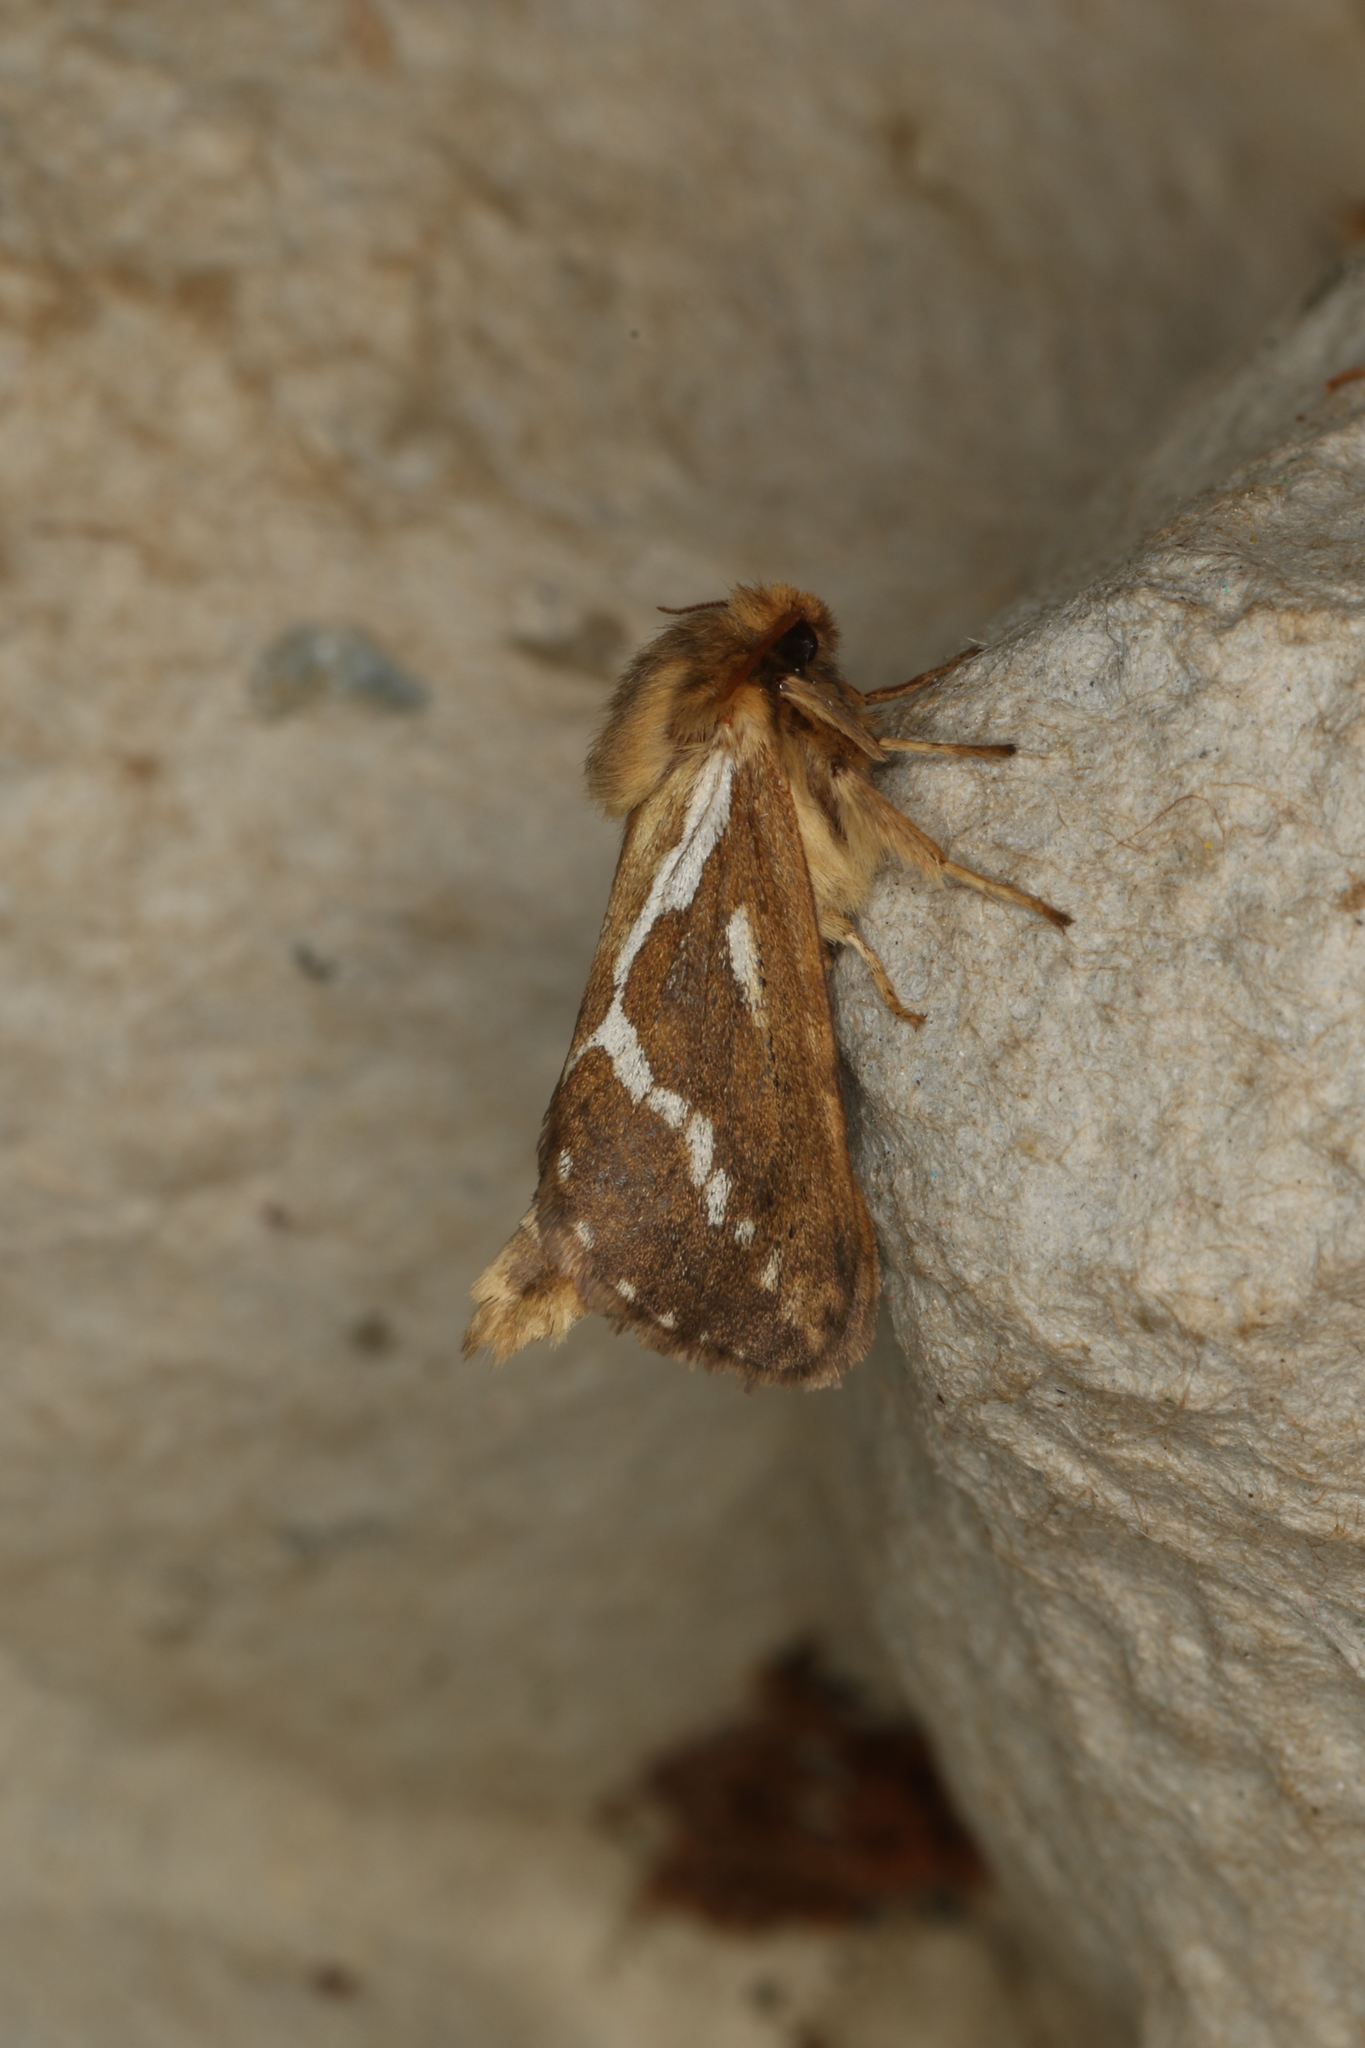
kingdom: Animalia
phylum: Arthropoda
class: Insecta
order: Lepidoptera
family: Hepialidae
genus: Korscheltellus
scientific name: Korscheltellus lupulina
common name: Common swift
